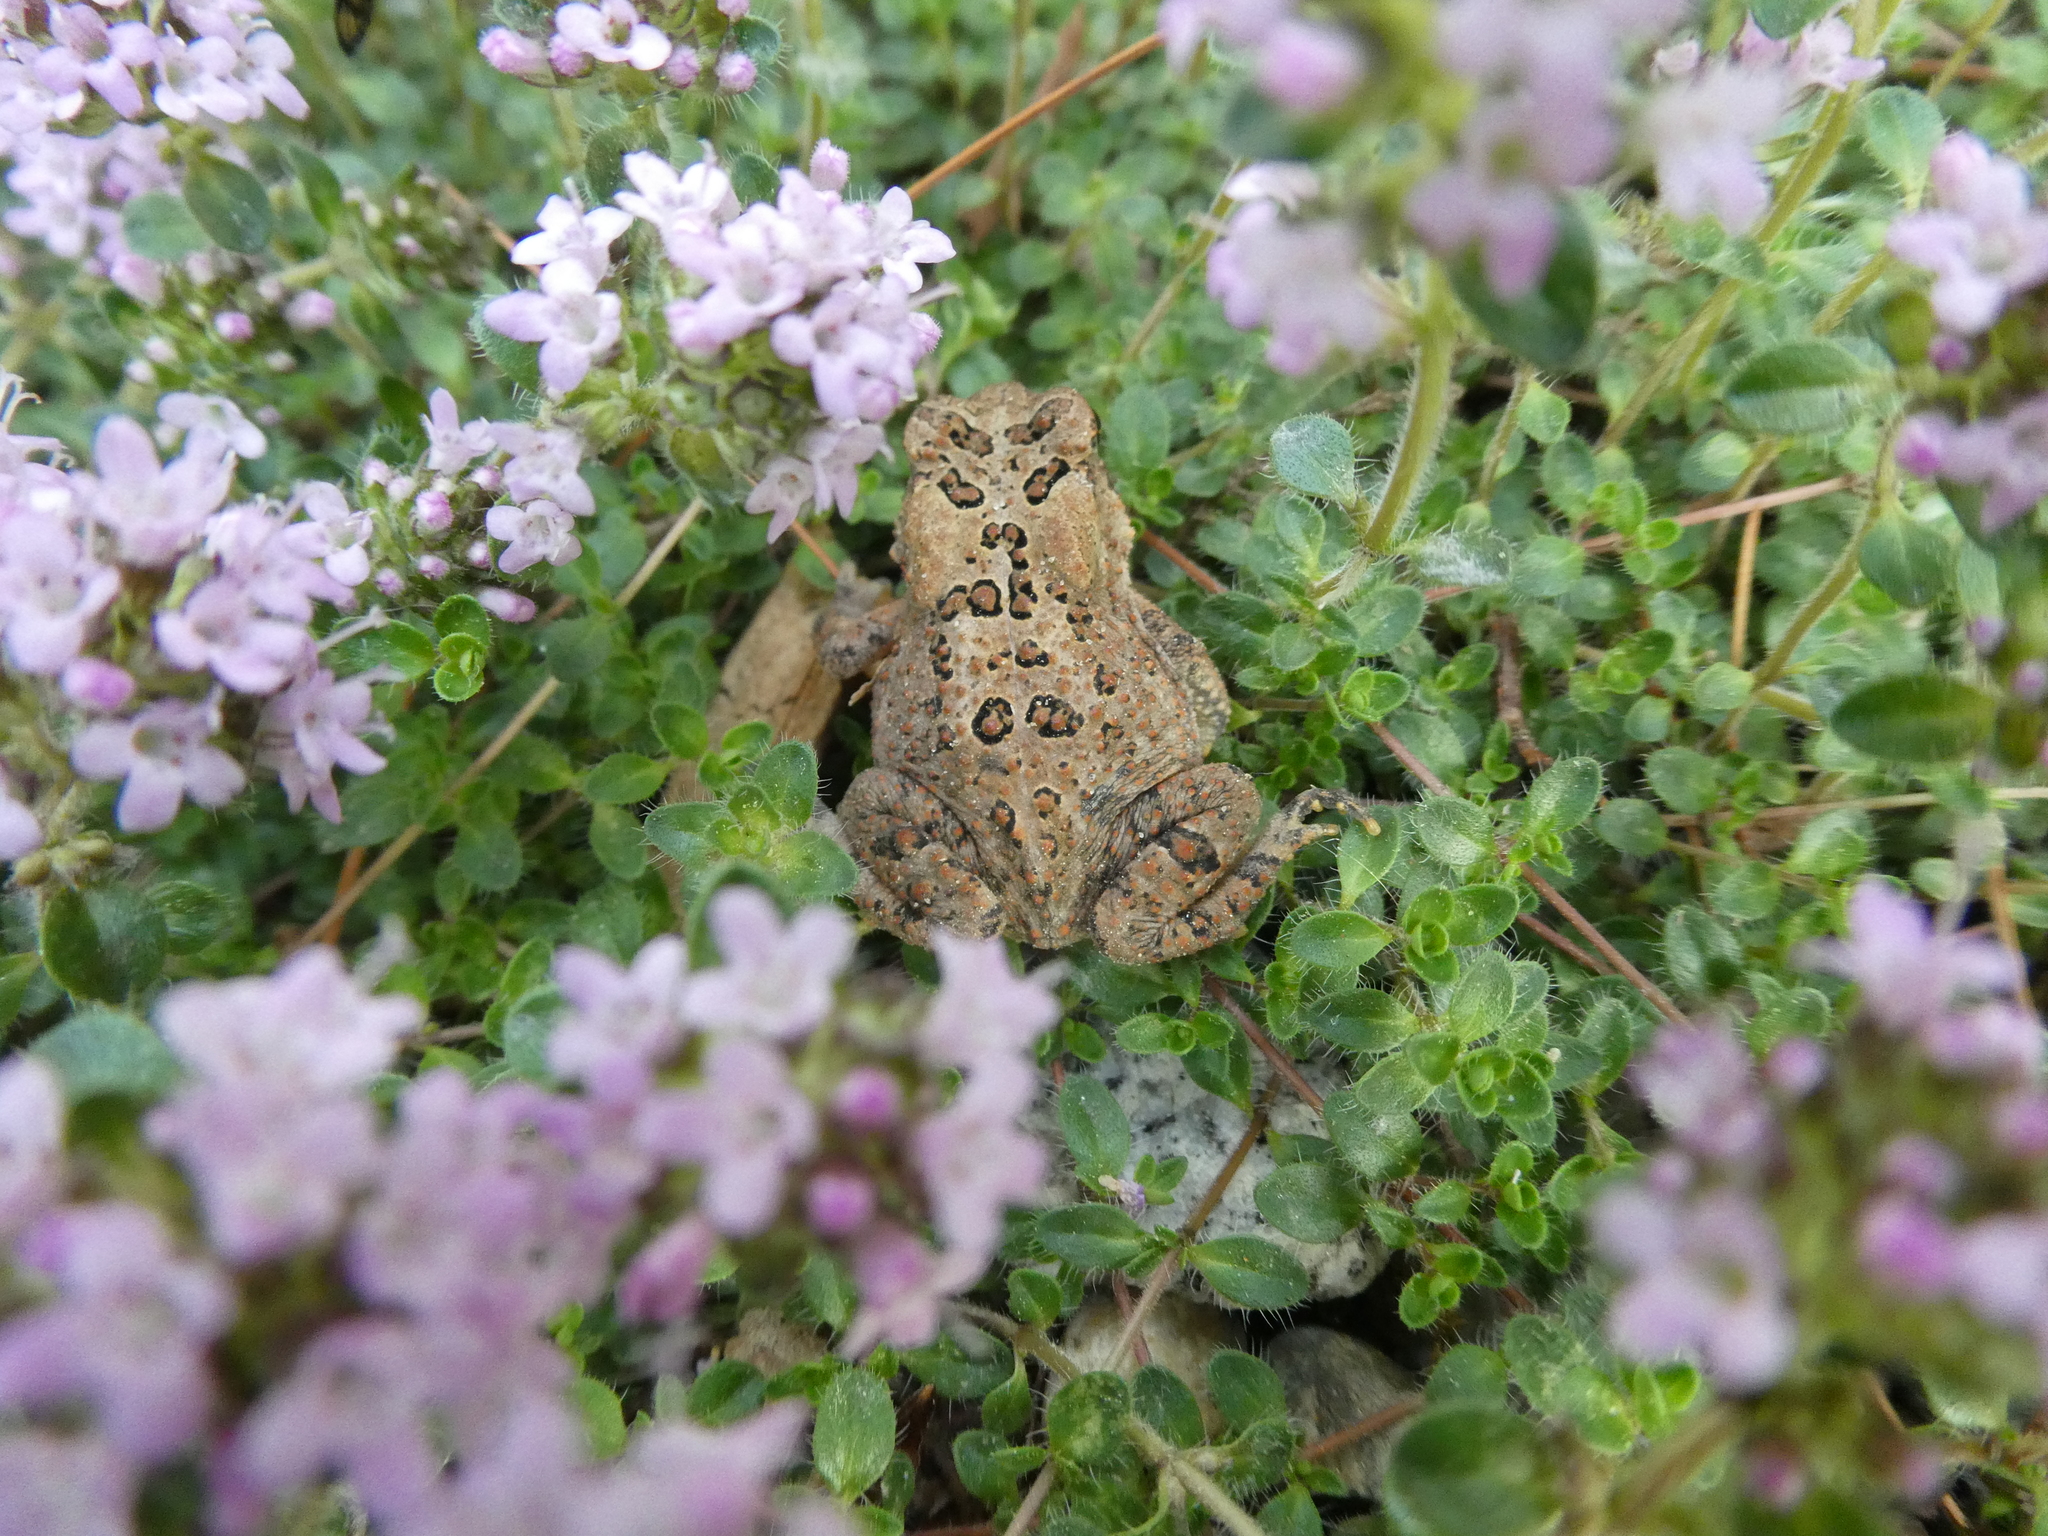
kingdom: Animalia
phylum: Chordata
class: Amphibia
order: Anura
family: Bufonidae
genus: Anaxyrus
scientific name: Anaxyrus americanus
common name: American toad
